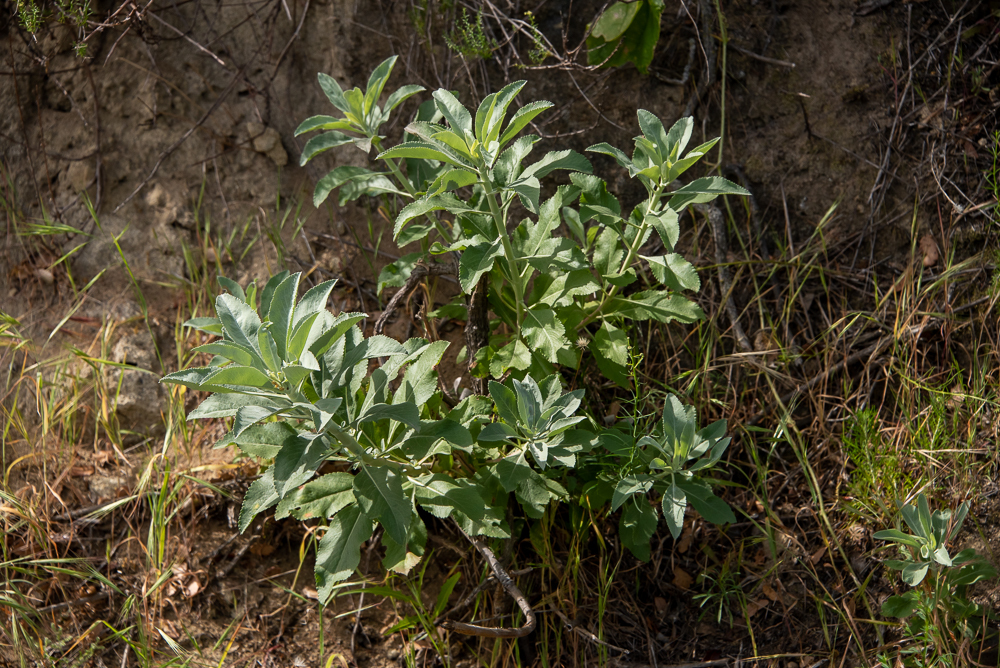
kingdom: Plantae
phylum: Tracheophyta
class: Magnoliopsida
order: Lamiales
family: Lamiaceae
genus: Salvia
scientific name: Salvia apiana
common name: White sage
